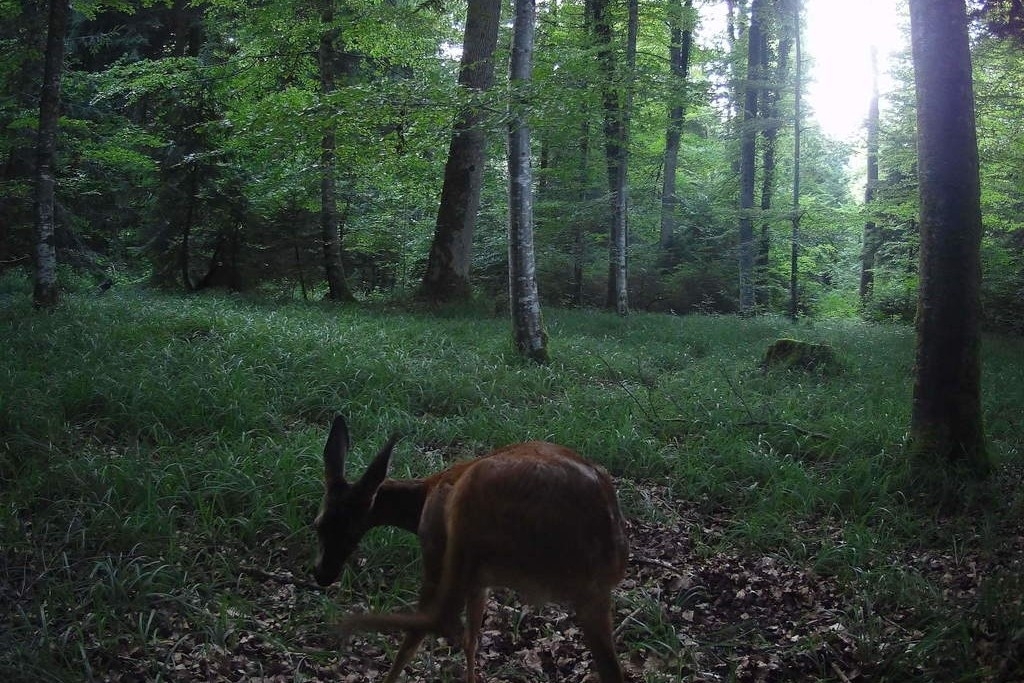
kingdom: Animalia
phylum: Chordata
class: Mammalia
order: Artiodactyla
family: Cervidae
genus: Capreolus
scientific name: Capreolus capreolus
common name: Western roe deer
